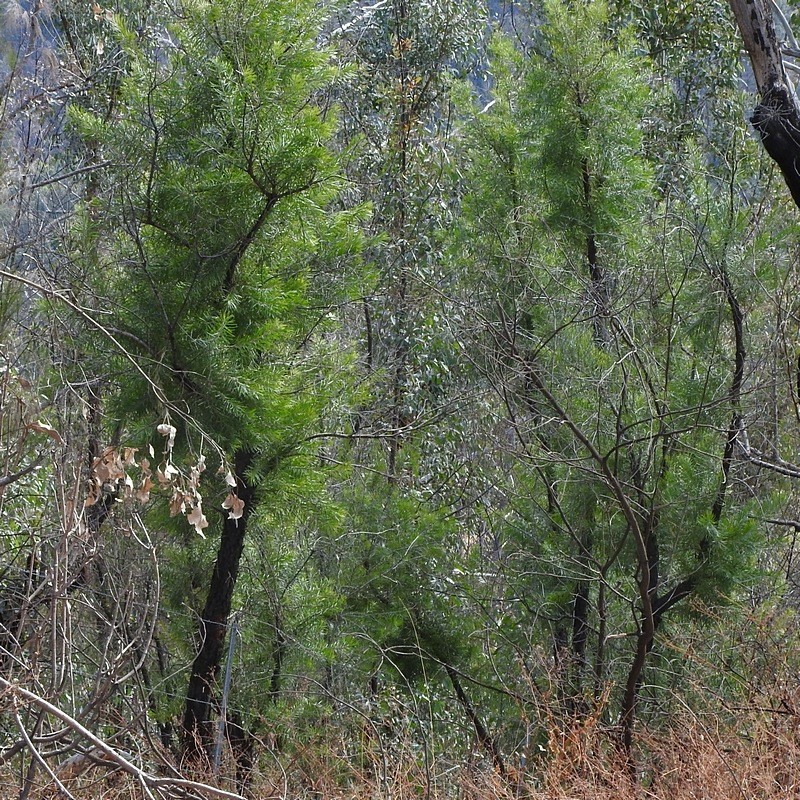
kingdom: Plantae
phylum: Tracheophyta
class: Magnoliopsida
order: Proteales
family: Proteaceae
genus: Persoonia
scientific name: Persoonia linearis
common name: Narrow-leaf geebung
